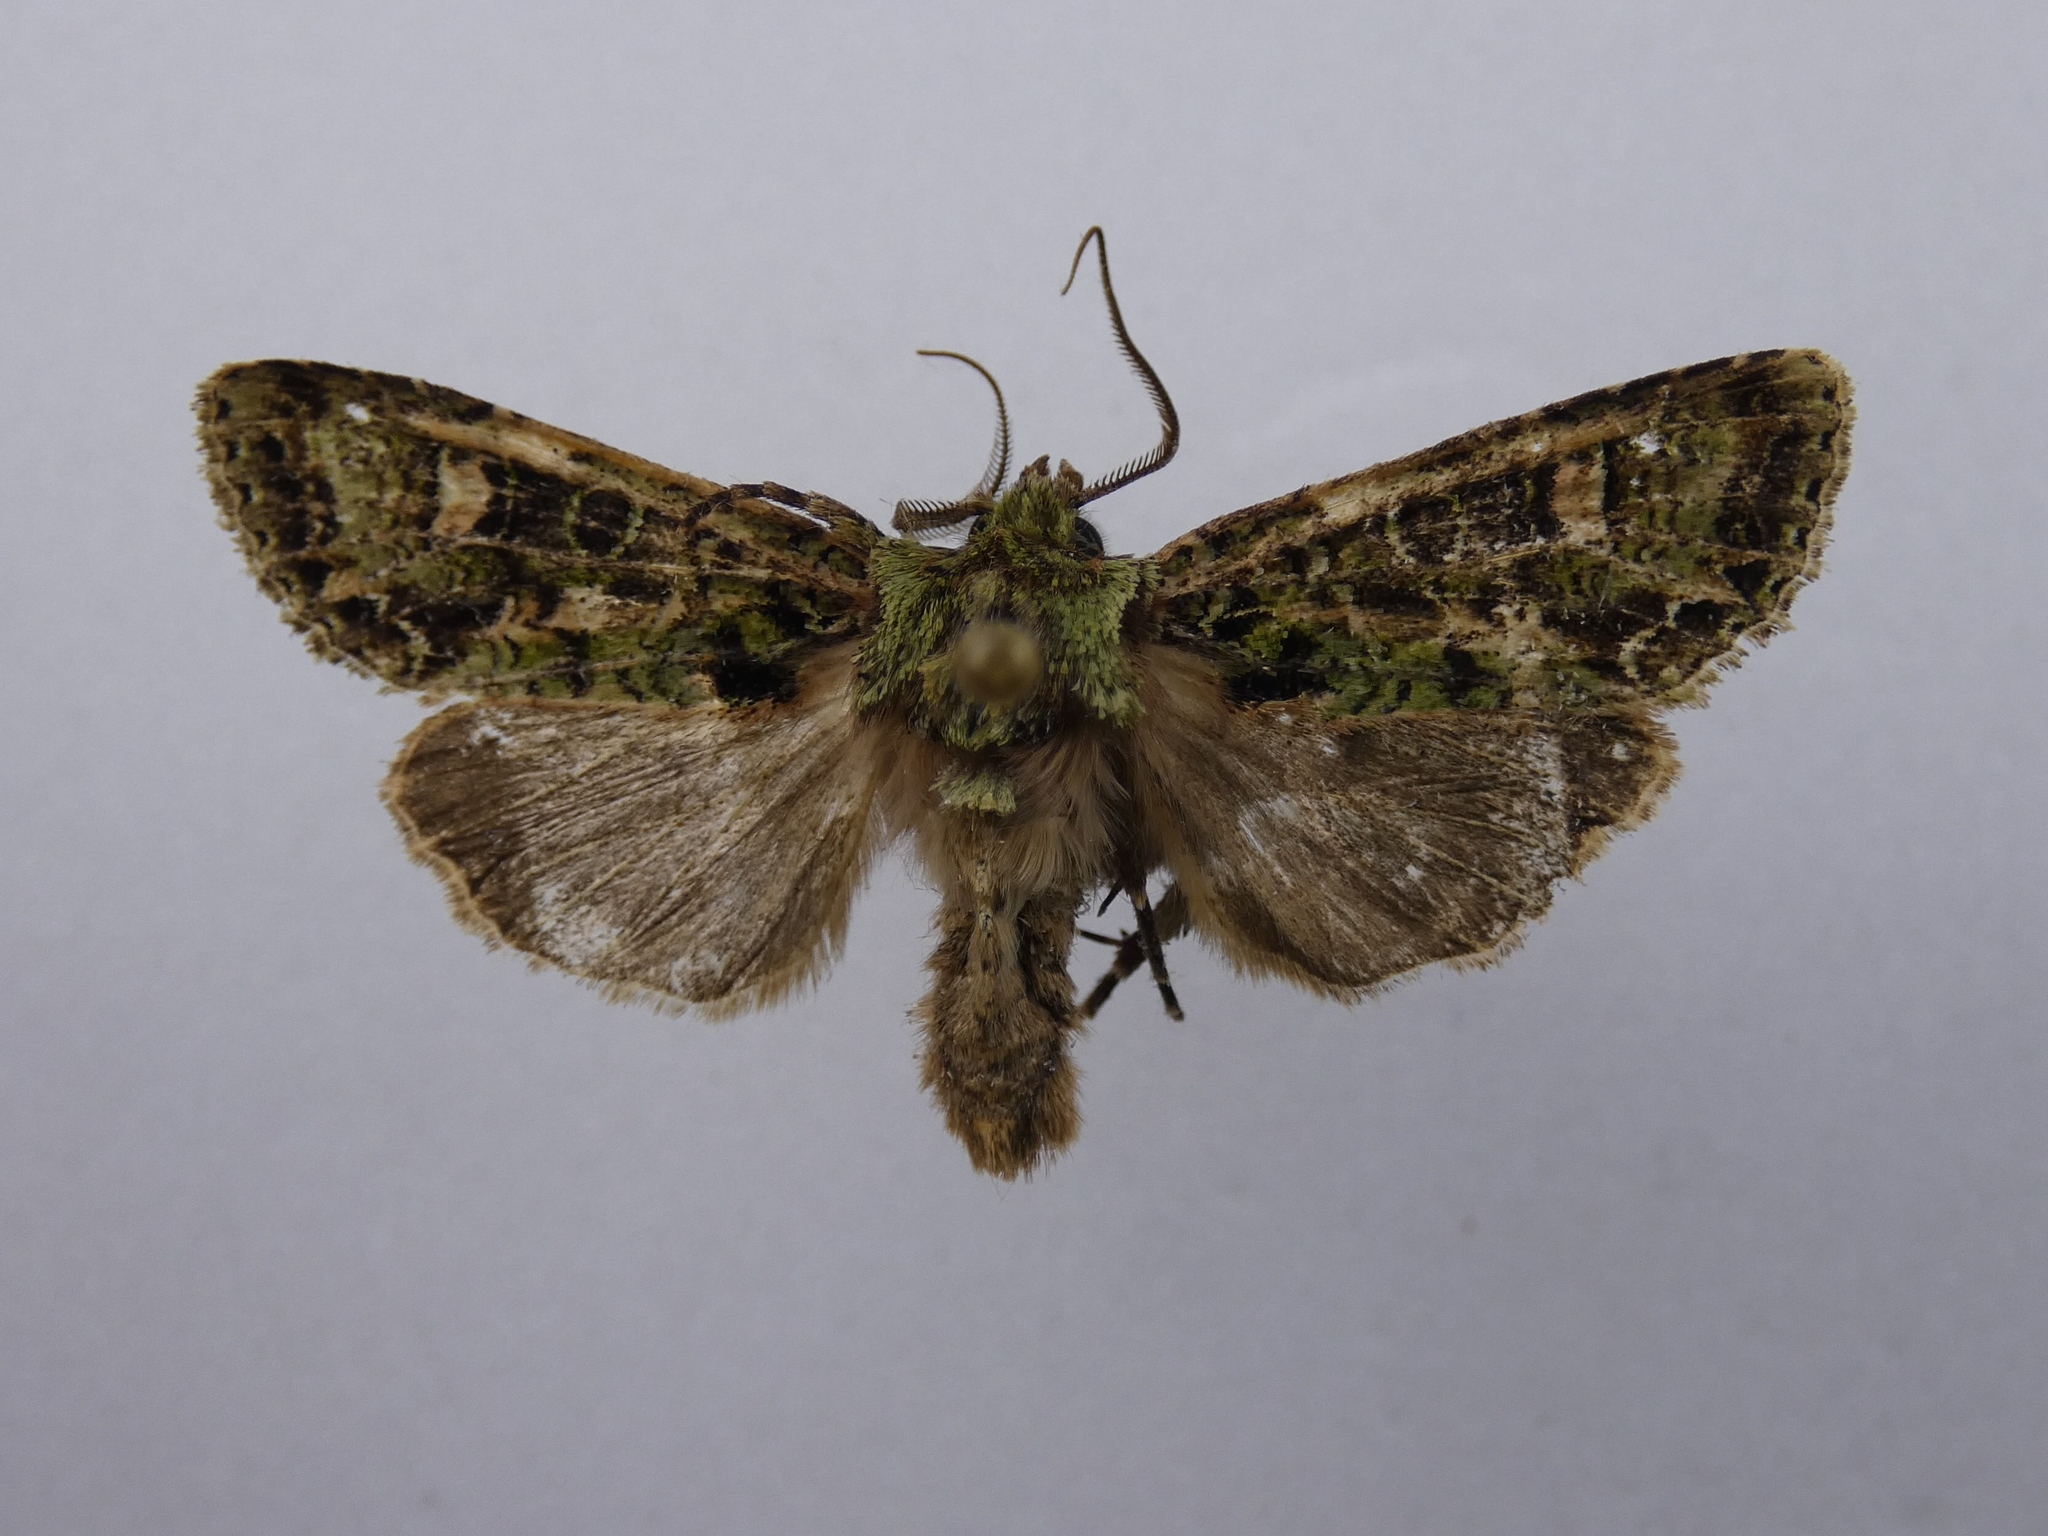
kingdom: Animalia
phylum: Arthropoda
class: Insecta
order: Lepidoptera
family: Noctuidae
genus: Ichneutica
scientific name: Ichneutica
